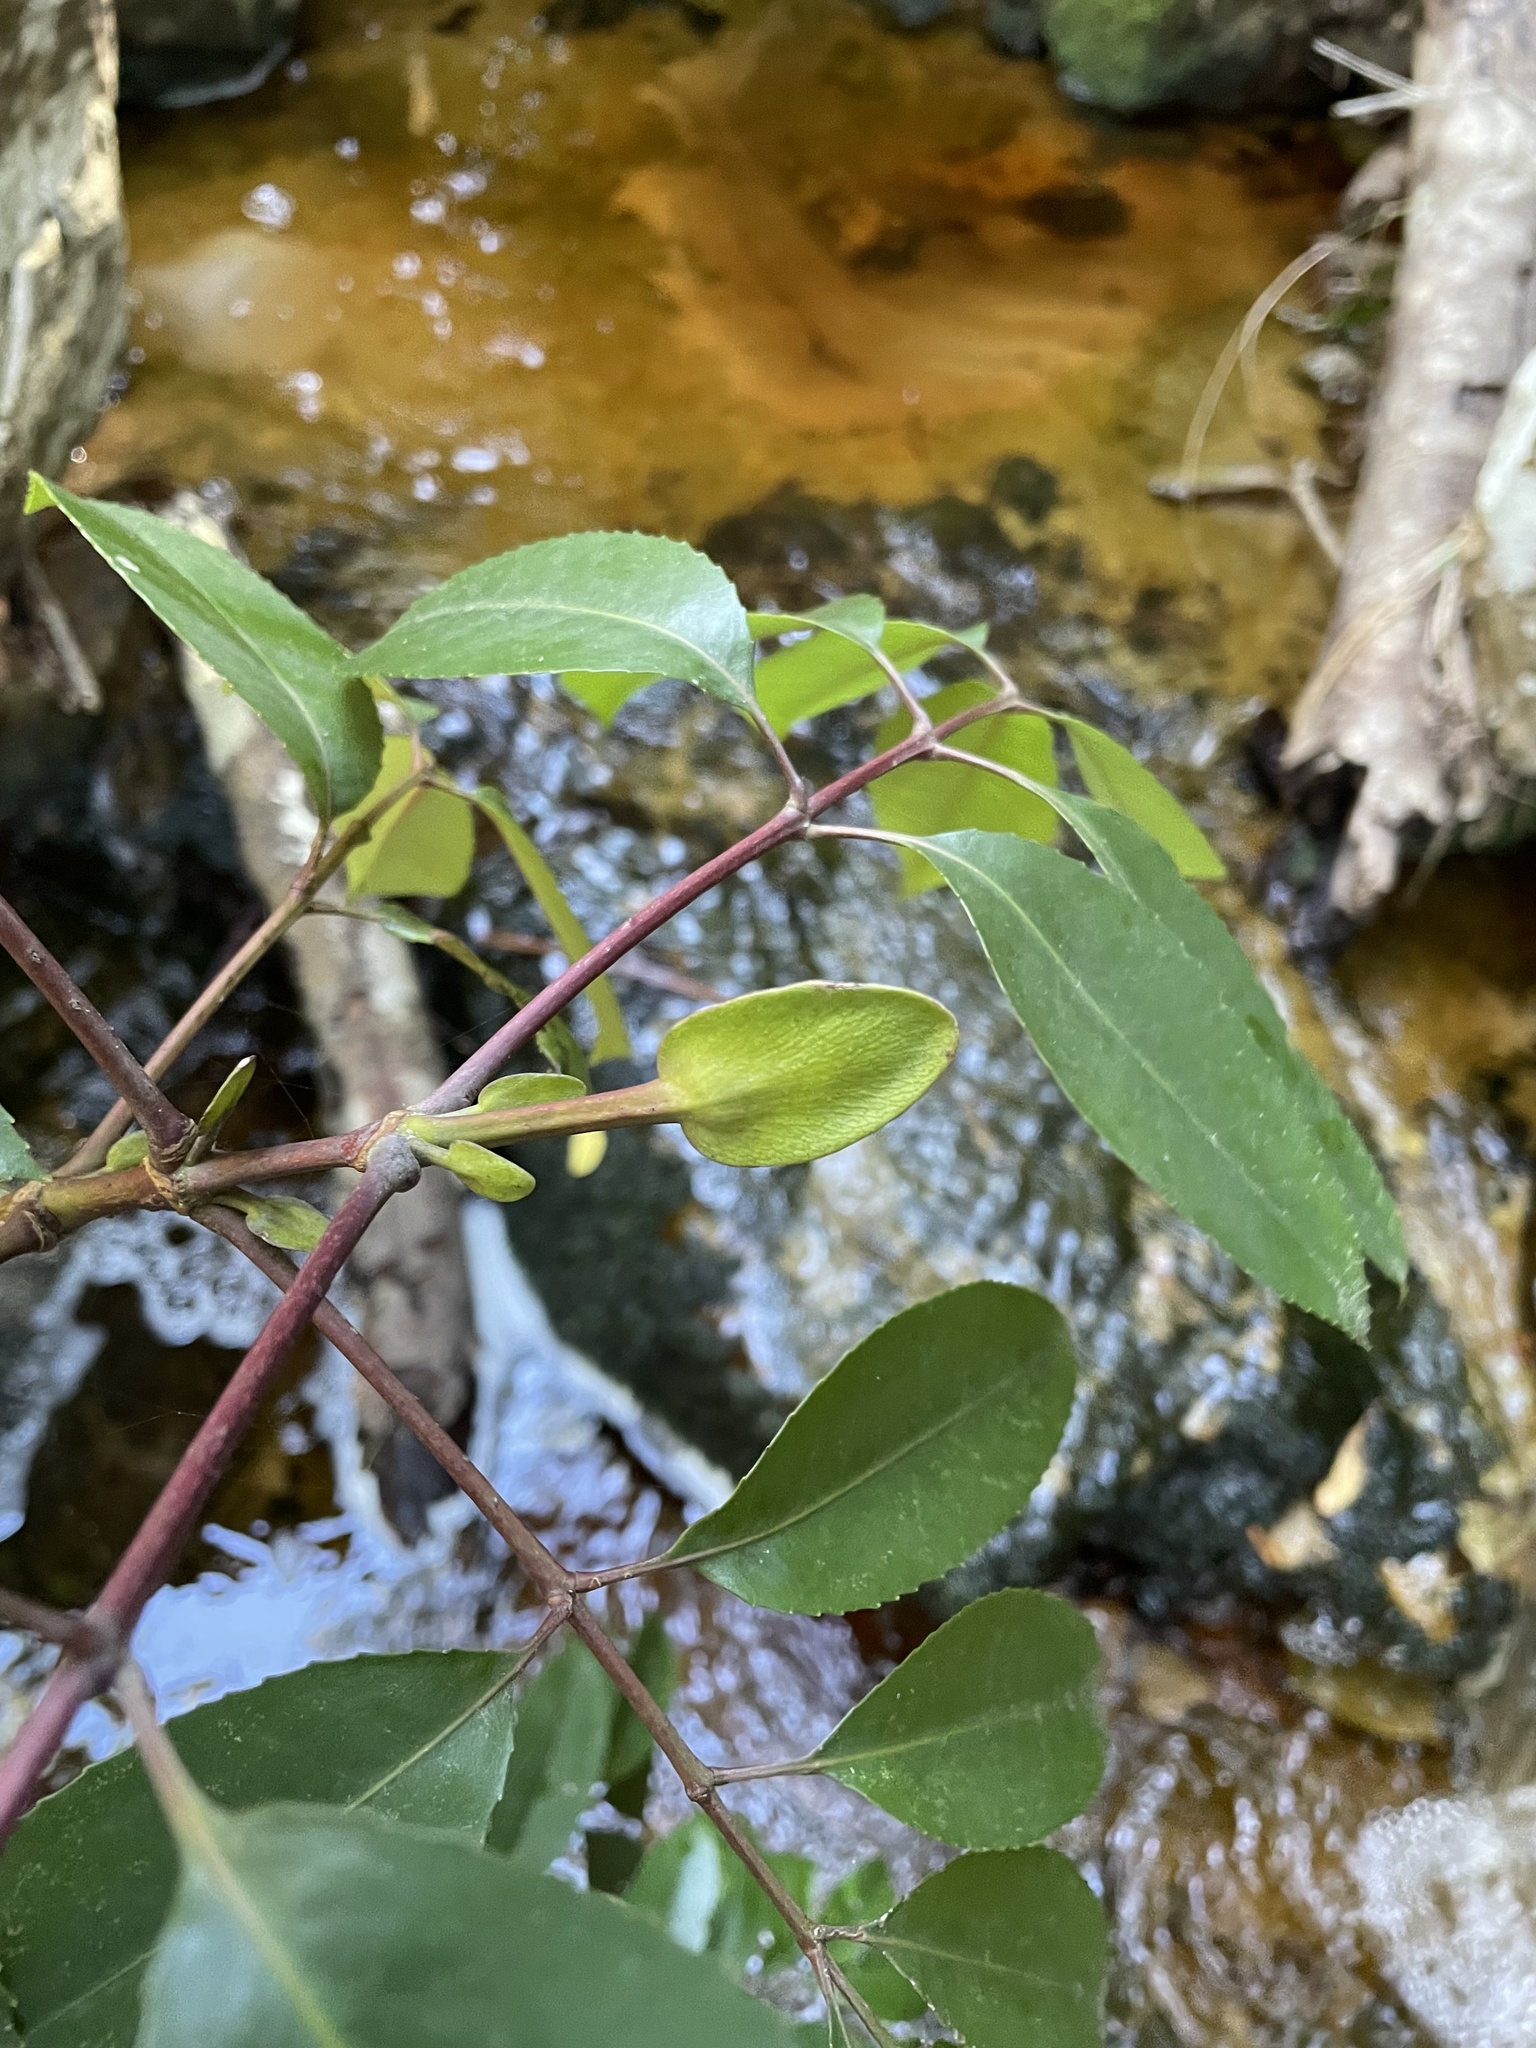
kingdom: Plantae
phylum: Tracheophyta
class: Magnoliopsida
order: Oxalidales
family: Cunoniaceae
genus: Cunonia
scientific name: Cunonia capensis
